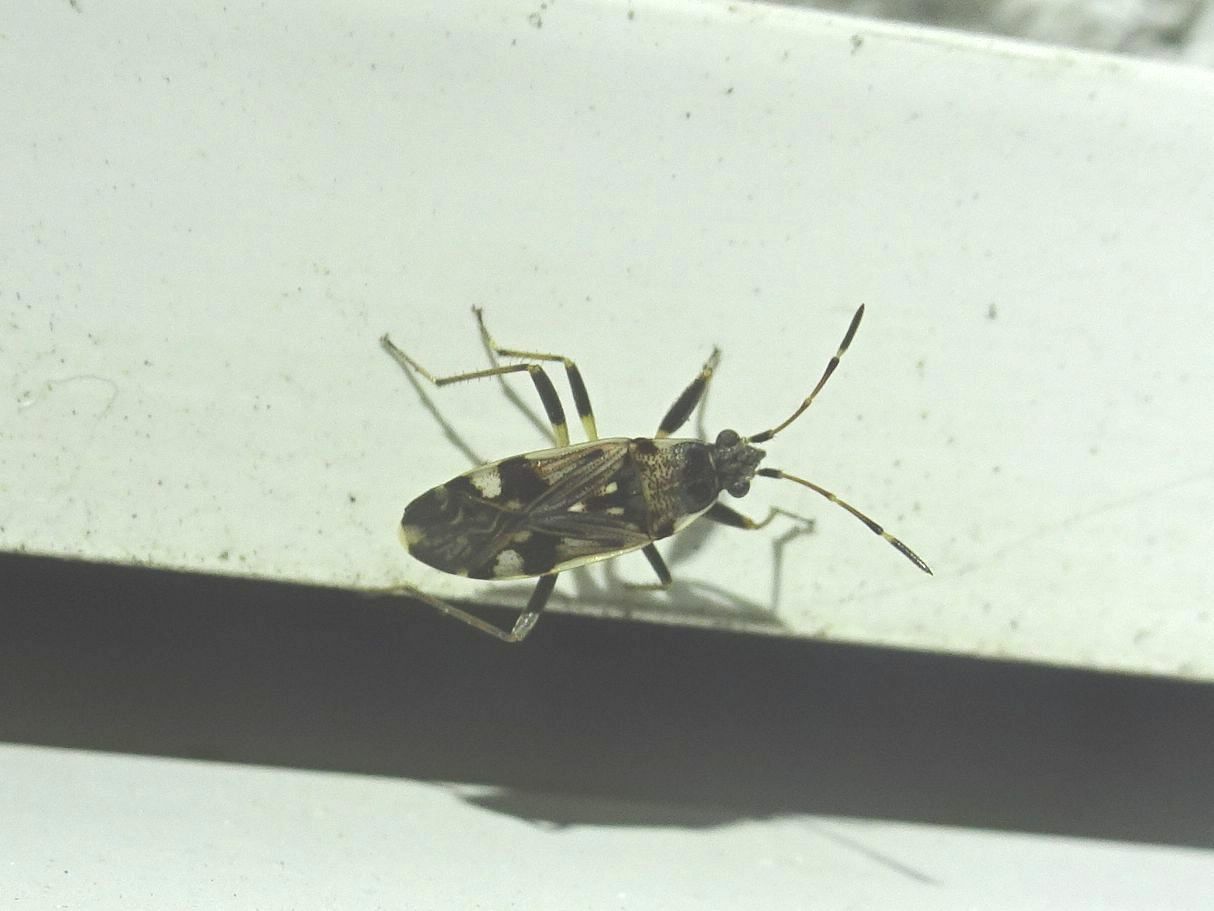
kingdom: Animalia
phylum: Arthropoda
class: Insecta
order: Hemiptera
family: Rhyparochromidae
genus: Beosus
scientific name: Beosus maritimus
